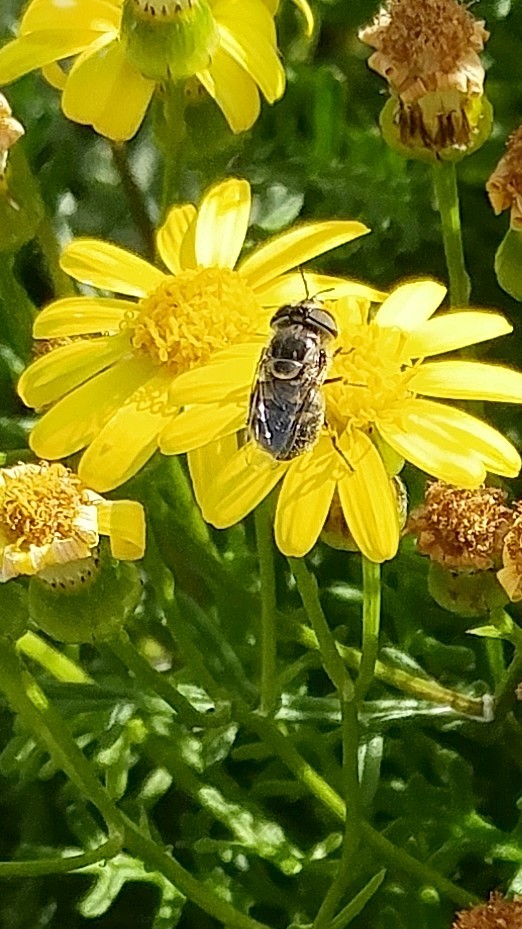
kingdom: Animalia
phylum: Arthropoda
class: Insecta
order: Diptera
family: Syrphidae
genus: Copestylum
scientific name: Copestylum lentum
